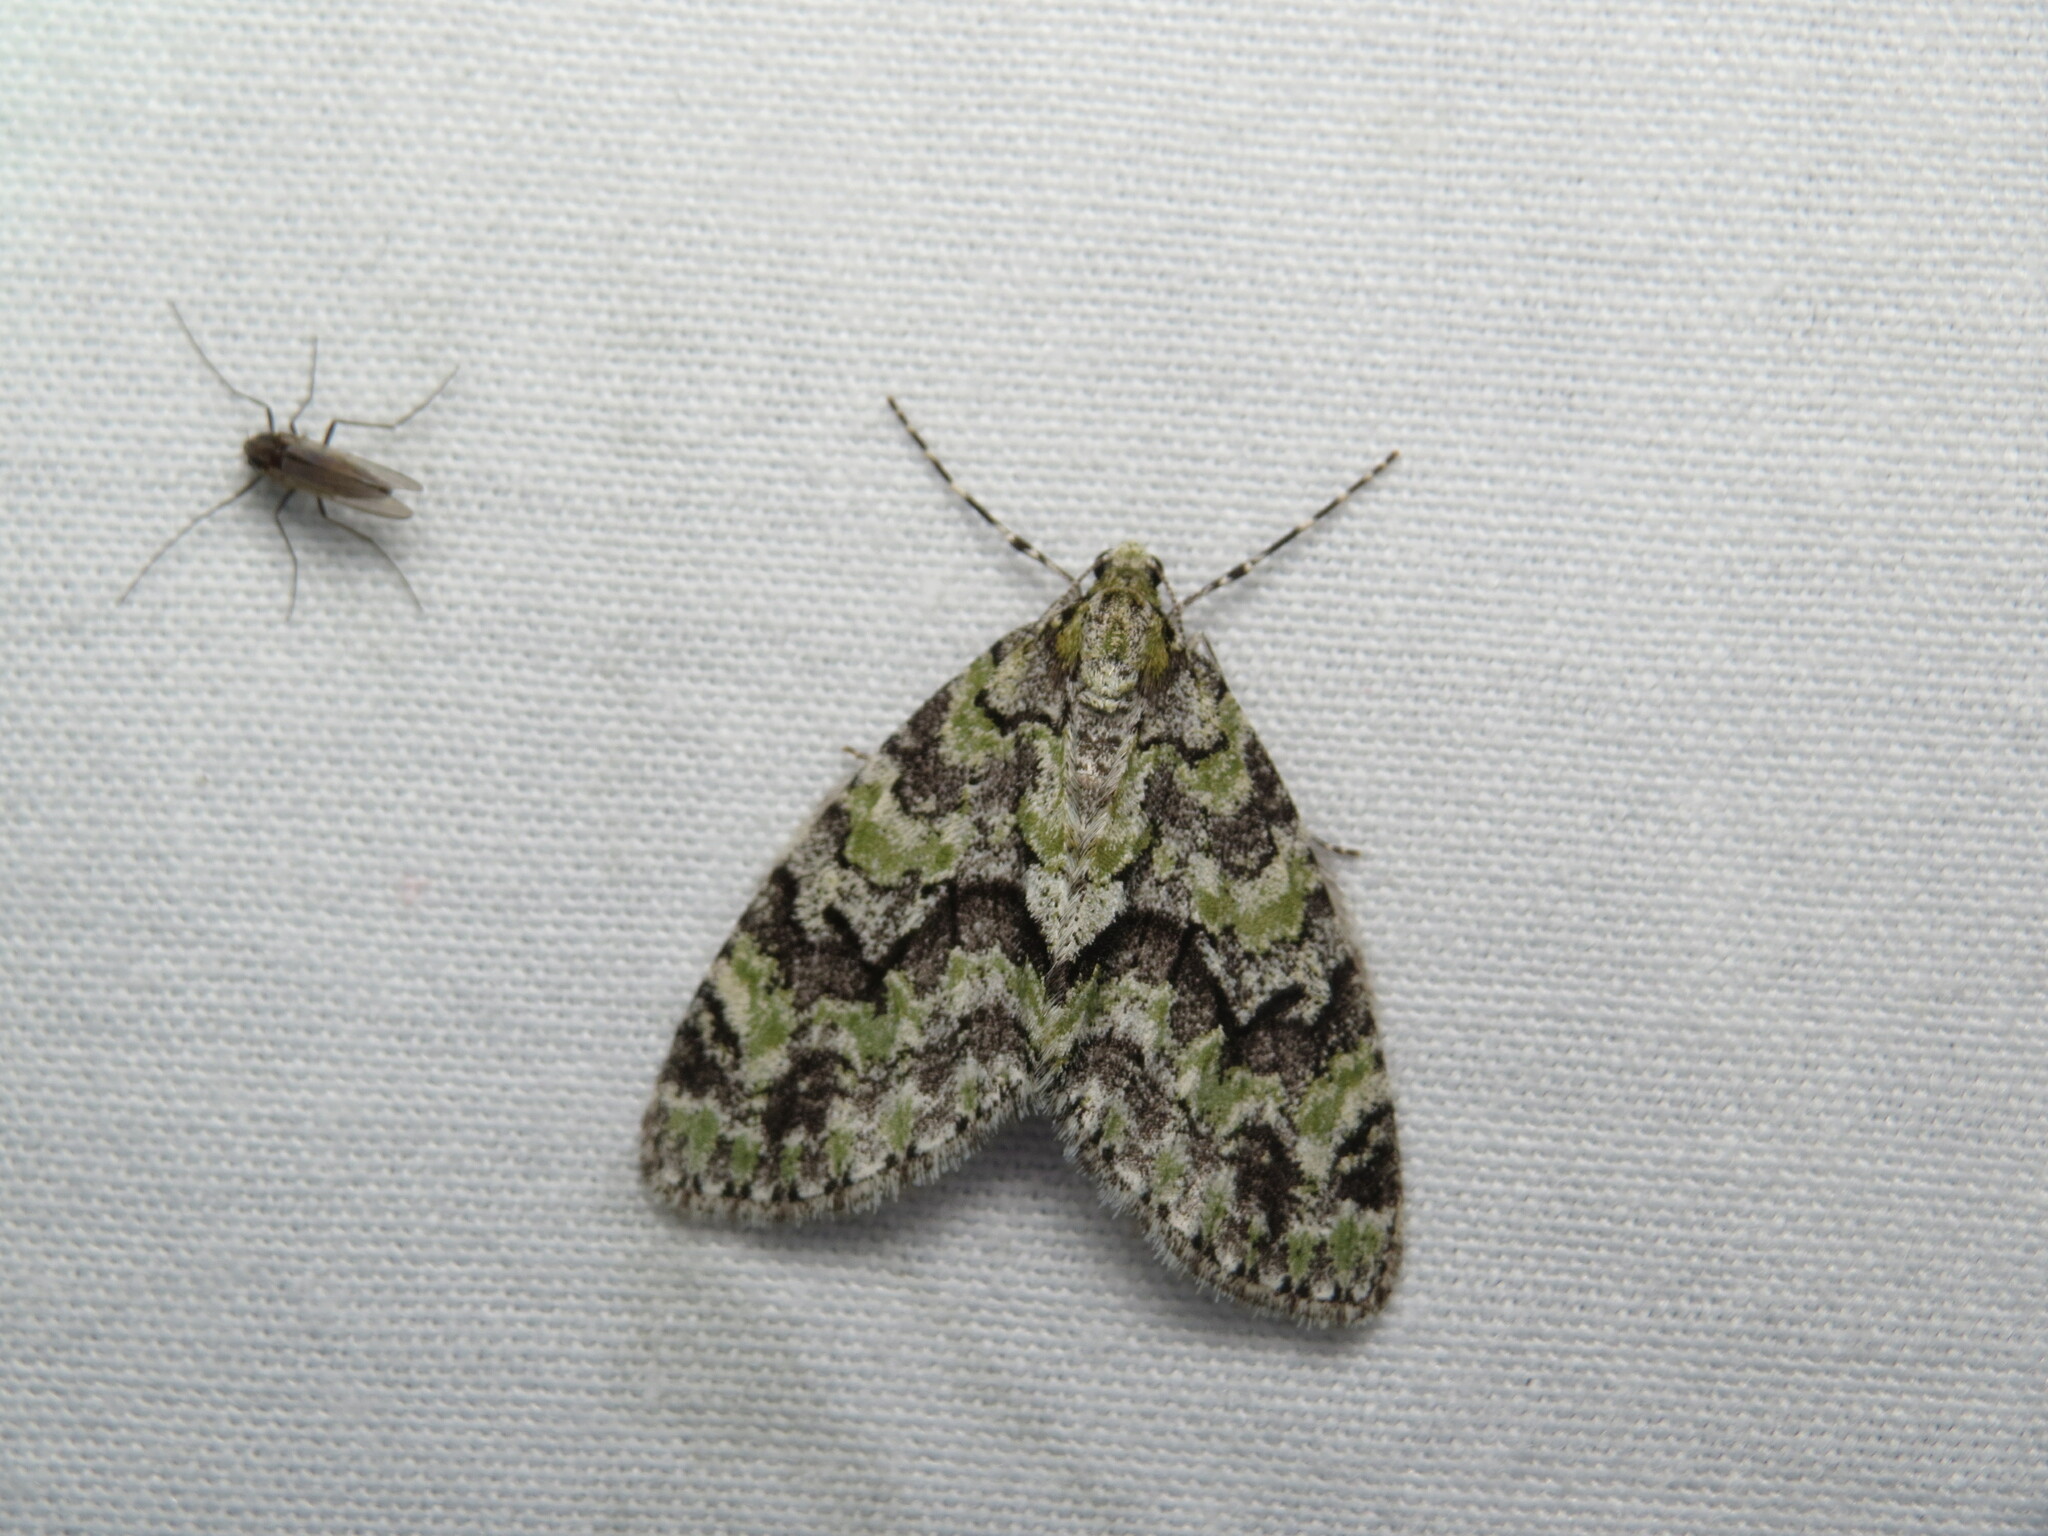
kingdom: Animalia
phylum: Arthropoda
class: Insecta
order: Lepidoptera
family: Geometridae
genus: Cladara
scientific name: Cladara limitaria
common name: Mottled gray carpet
